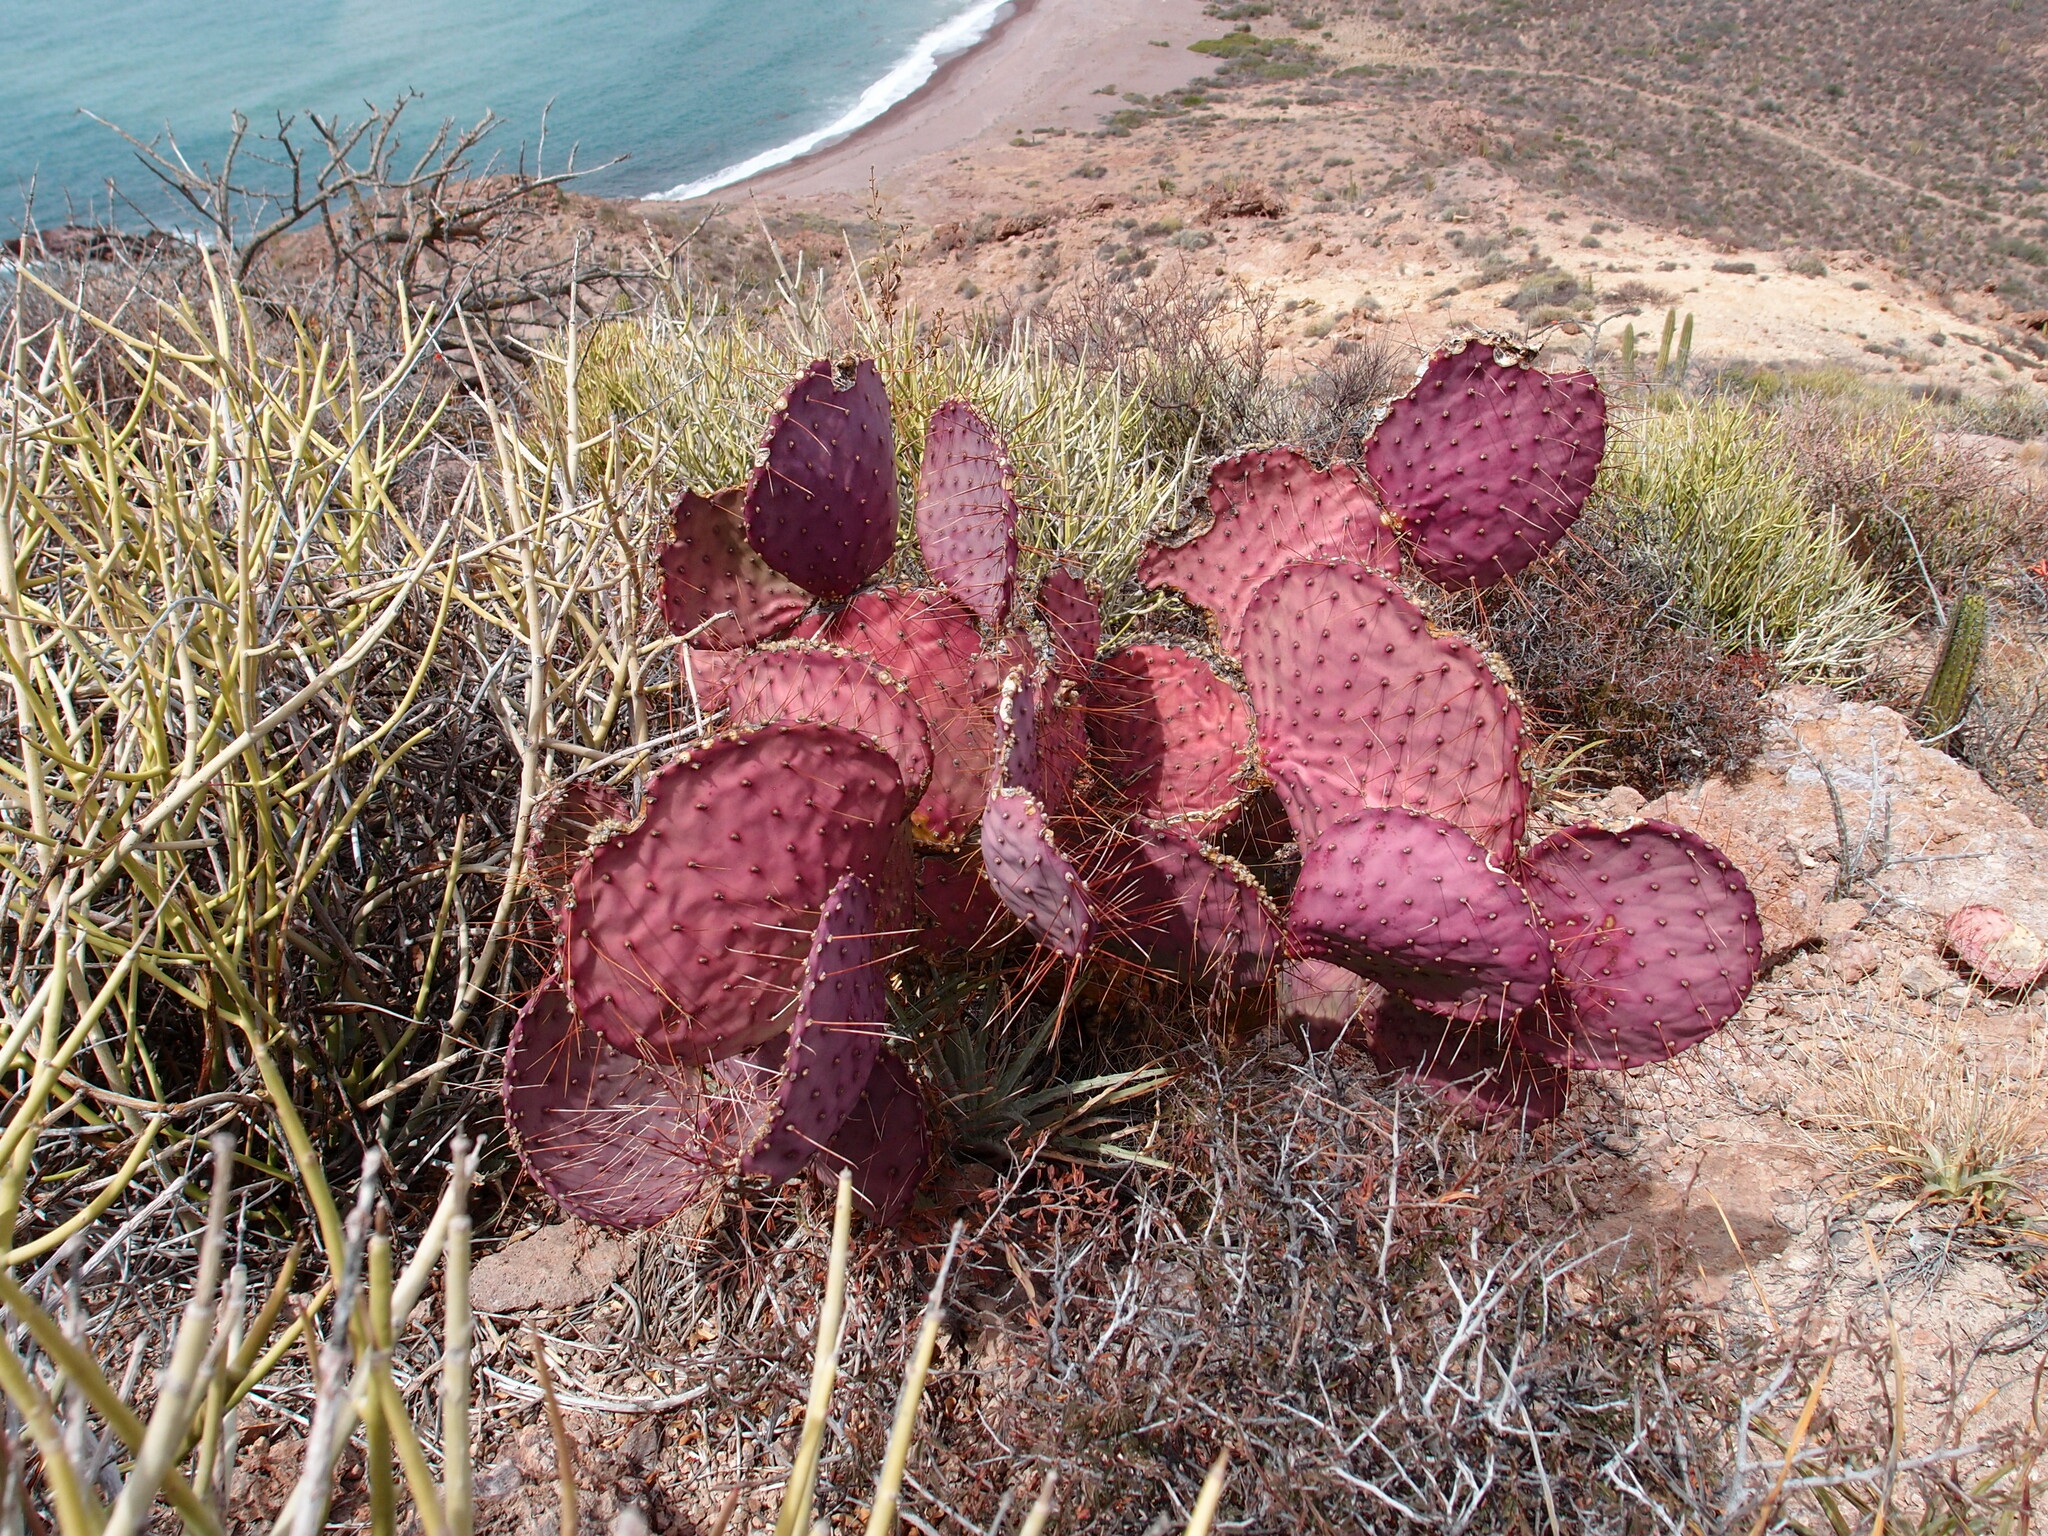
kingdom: Plantae
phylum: Tracheophyta
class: Magnoliopsida
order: Caryophyllales
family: Cactaceae
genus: Opuntia
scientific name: Opuntia gosseliniana
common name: Violet prickly-pear
